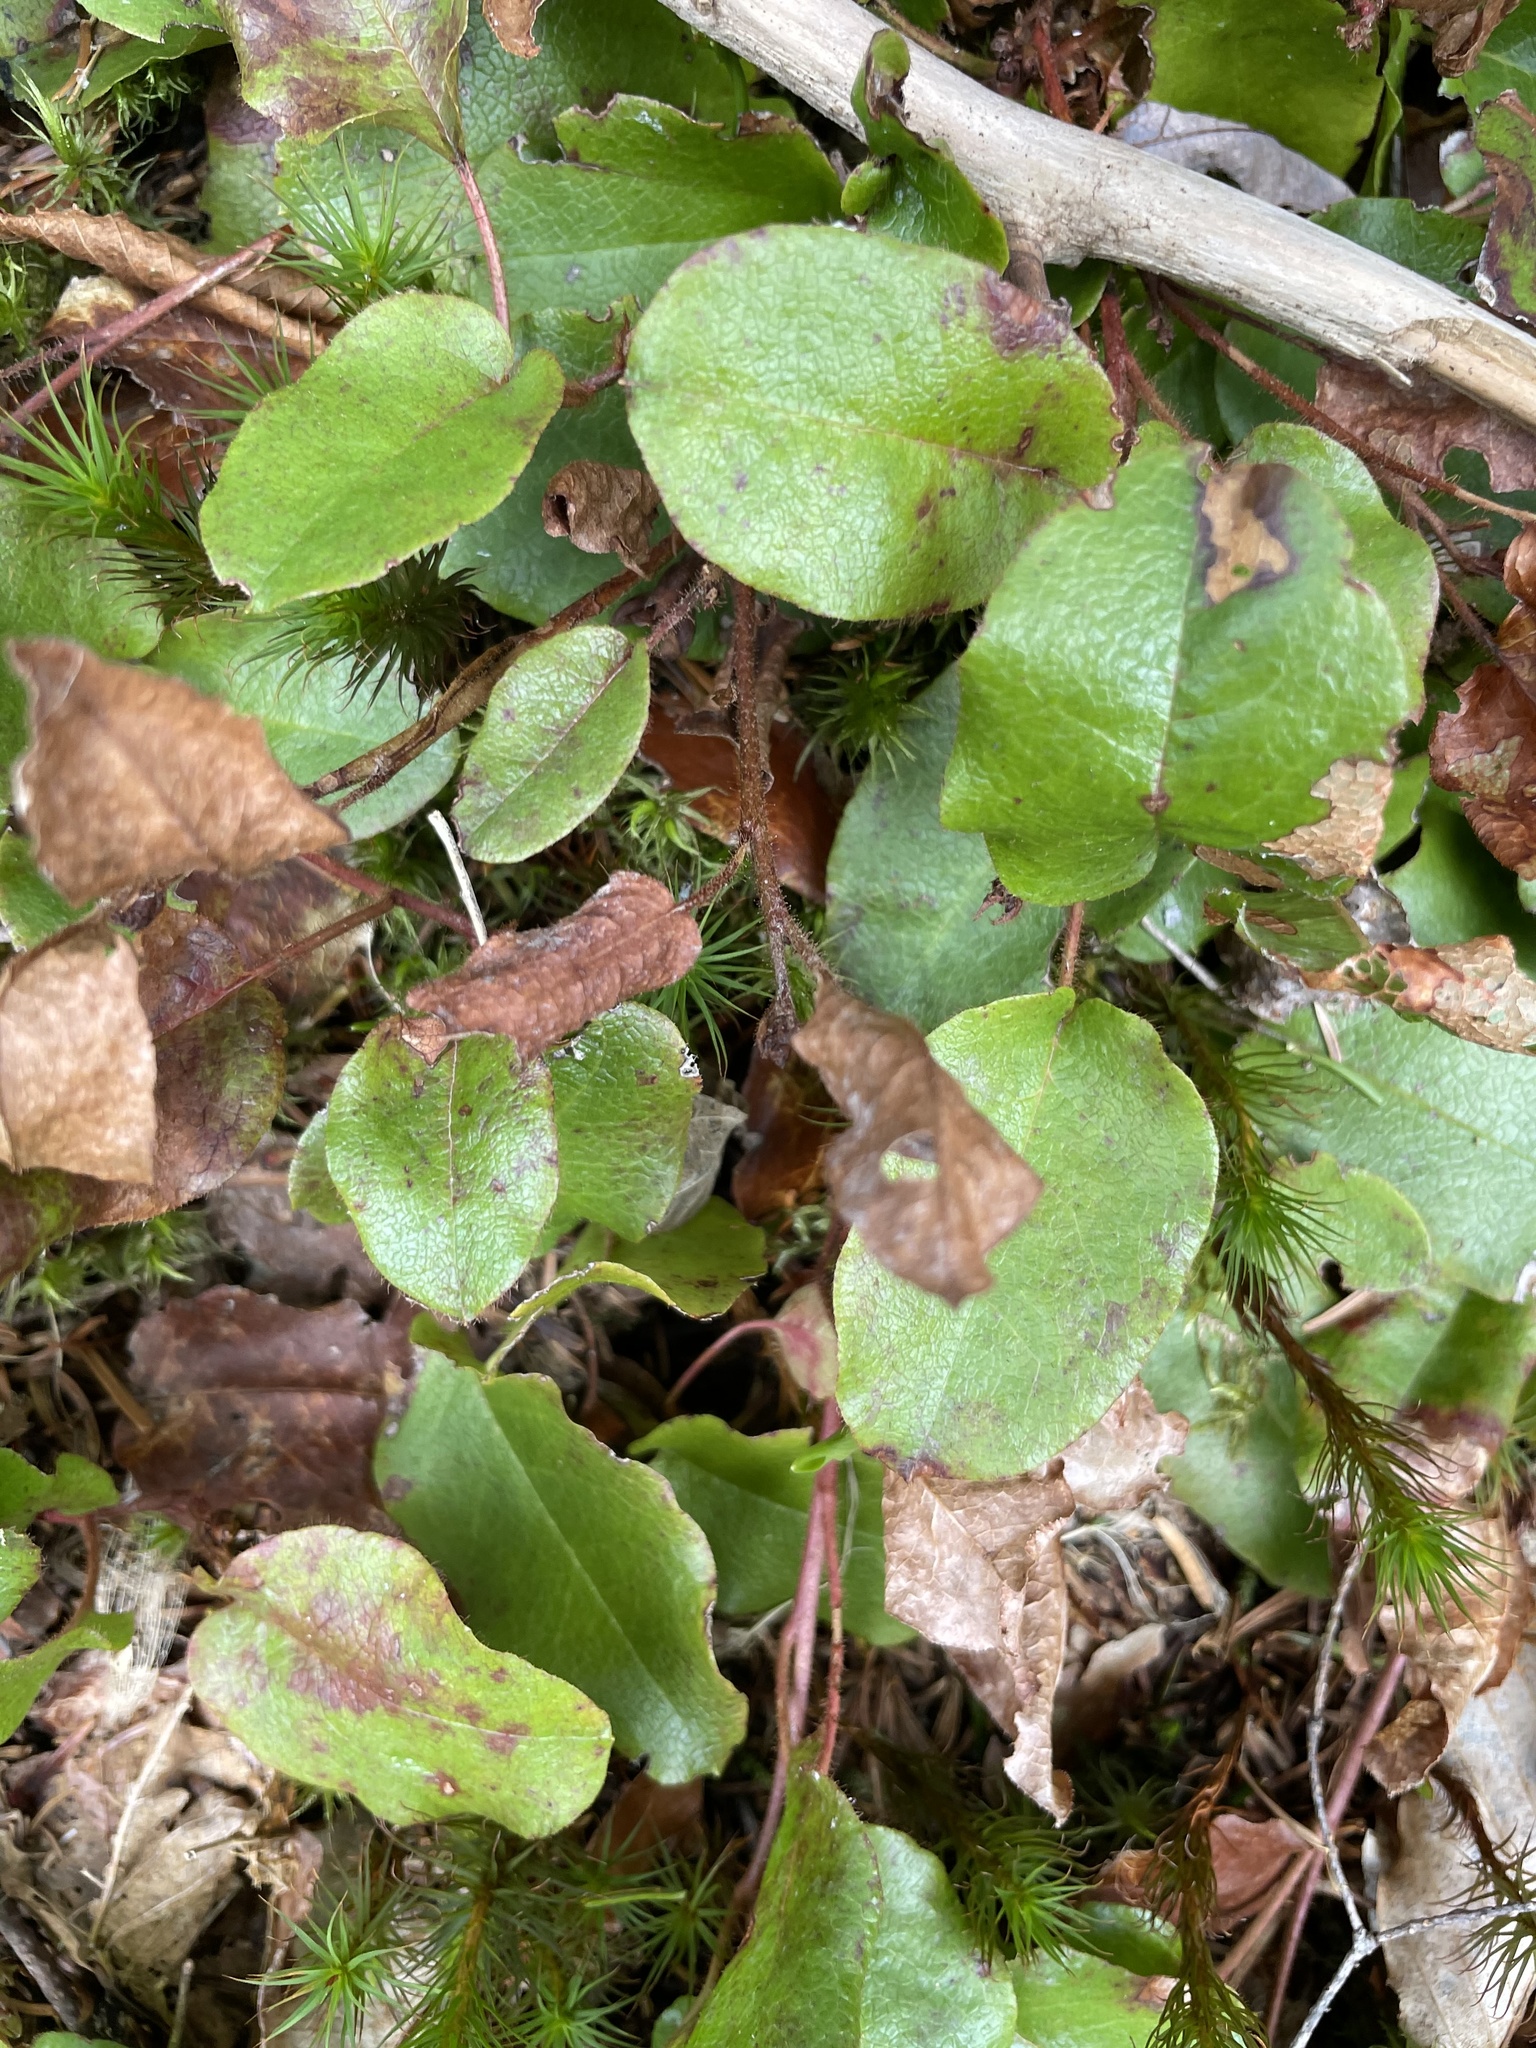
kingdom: Plantae
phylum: Tracheophyta
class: Magnoliopsida
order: Ericales
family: Ericaceae
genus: Epigaea
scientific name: Epigaea repens
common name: Gravelroot
